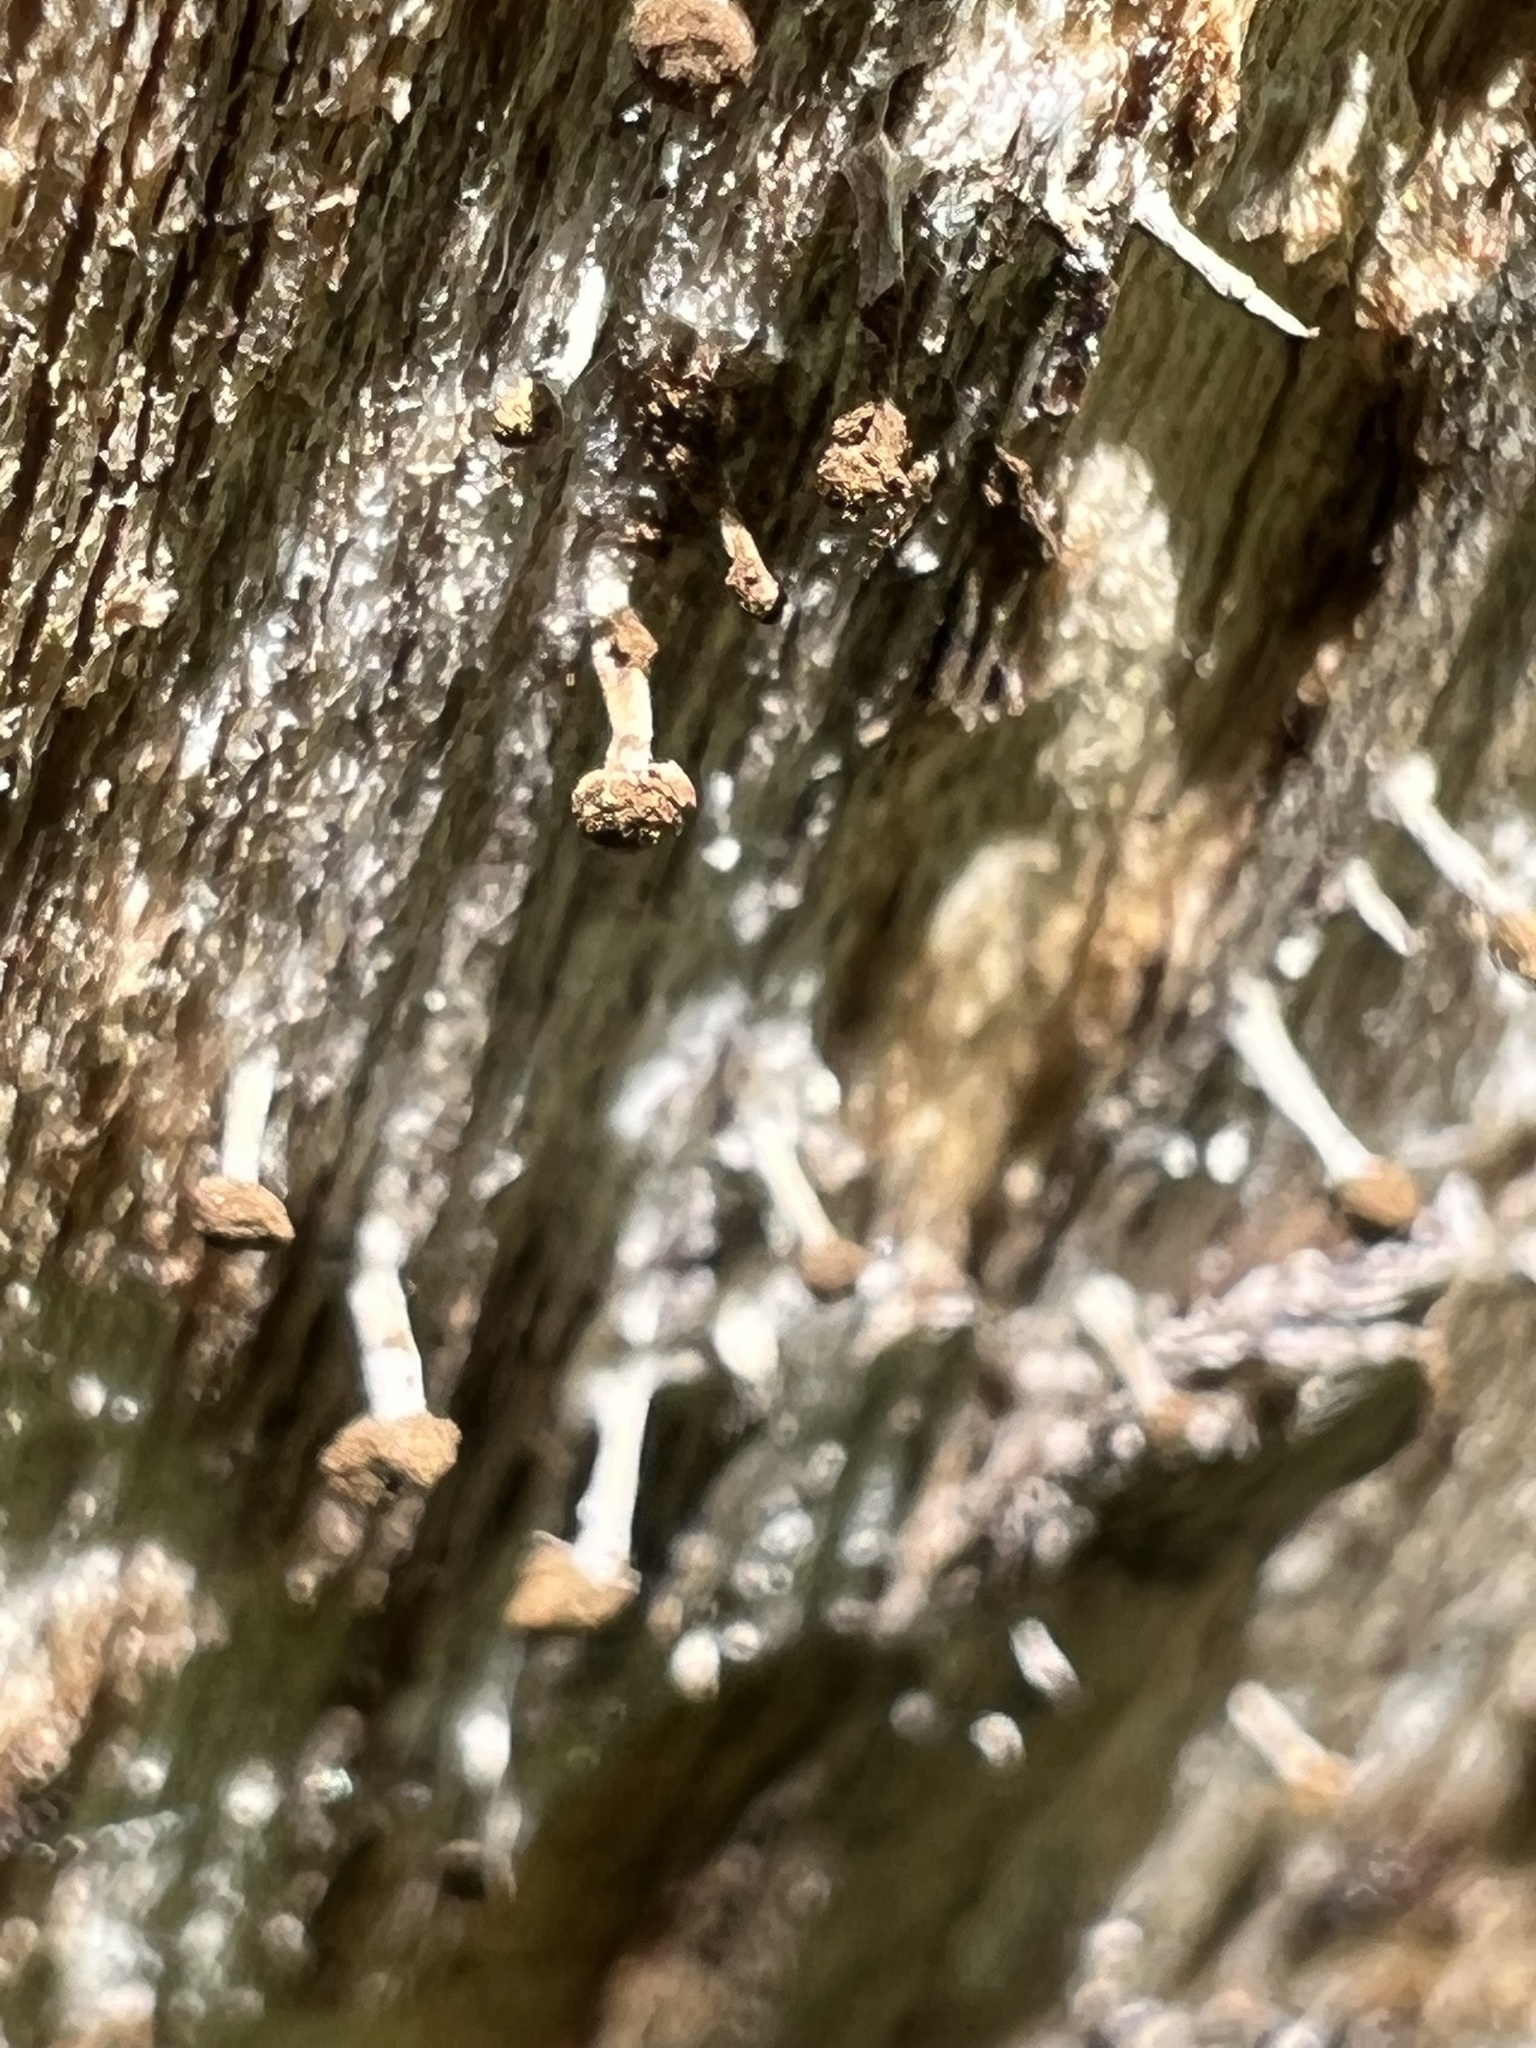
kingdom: Fungi
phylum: Basidiomycota
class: Atractiellomycetes
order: Atractiellales
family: Phleogenaceae
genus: Phleogena
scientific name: Phleogena faginea
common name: Fenugreek stalkball
